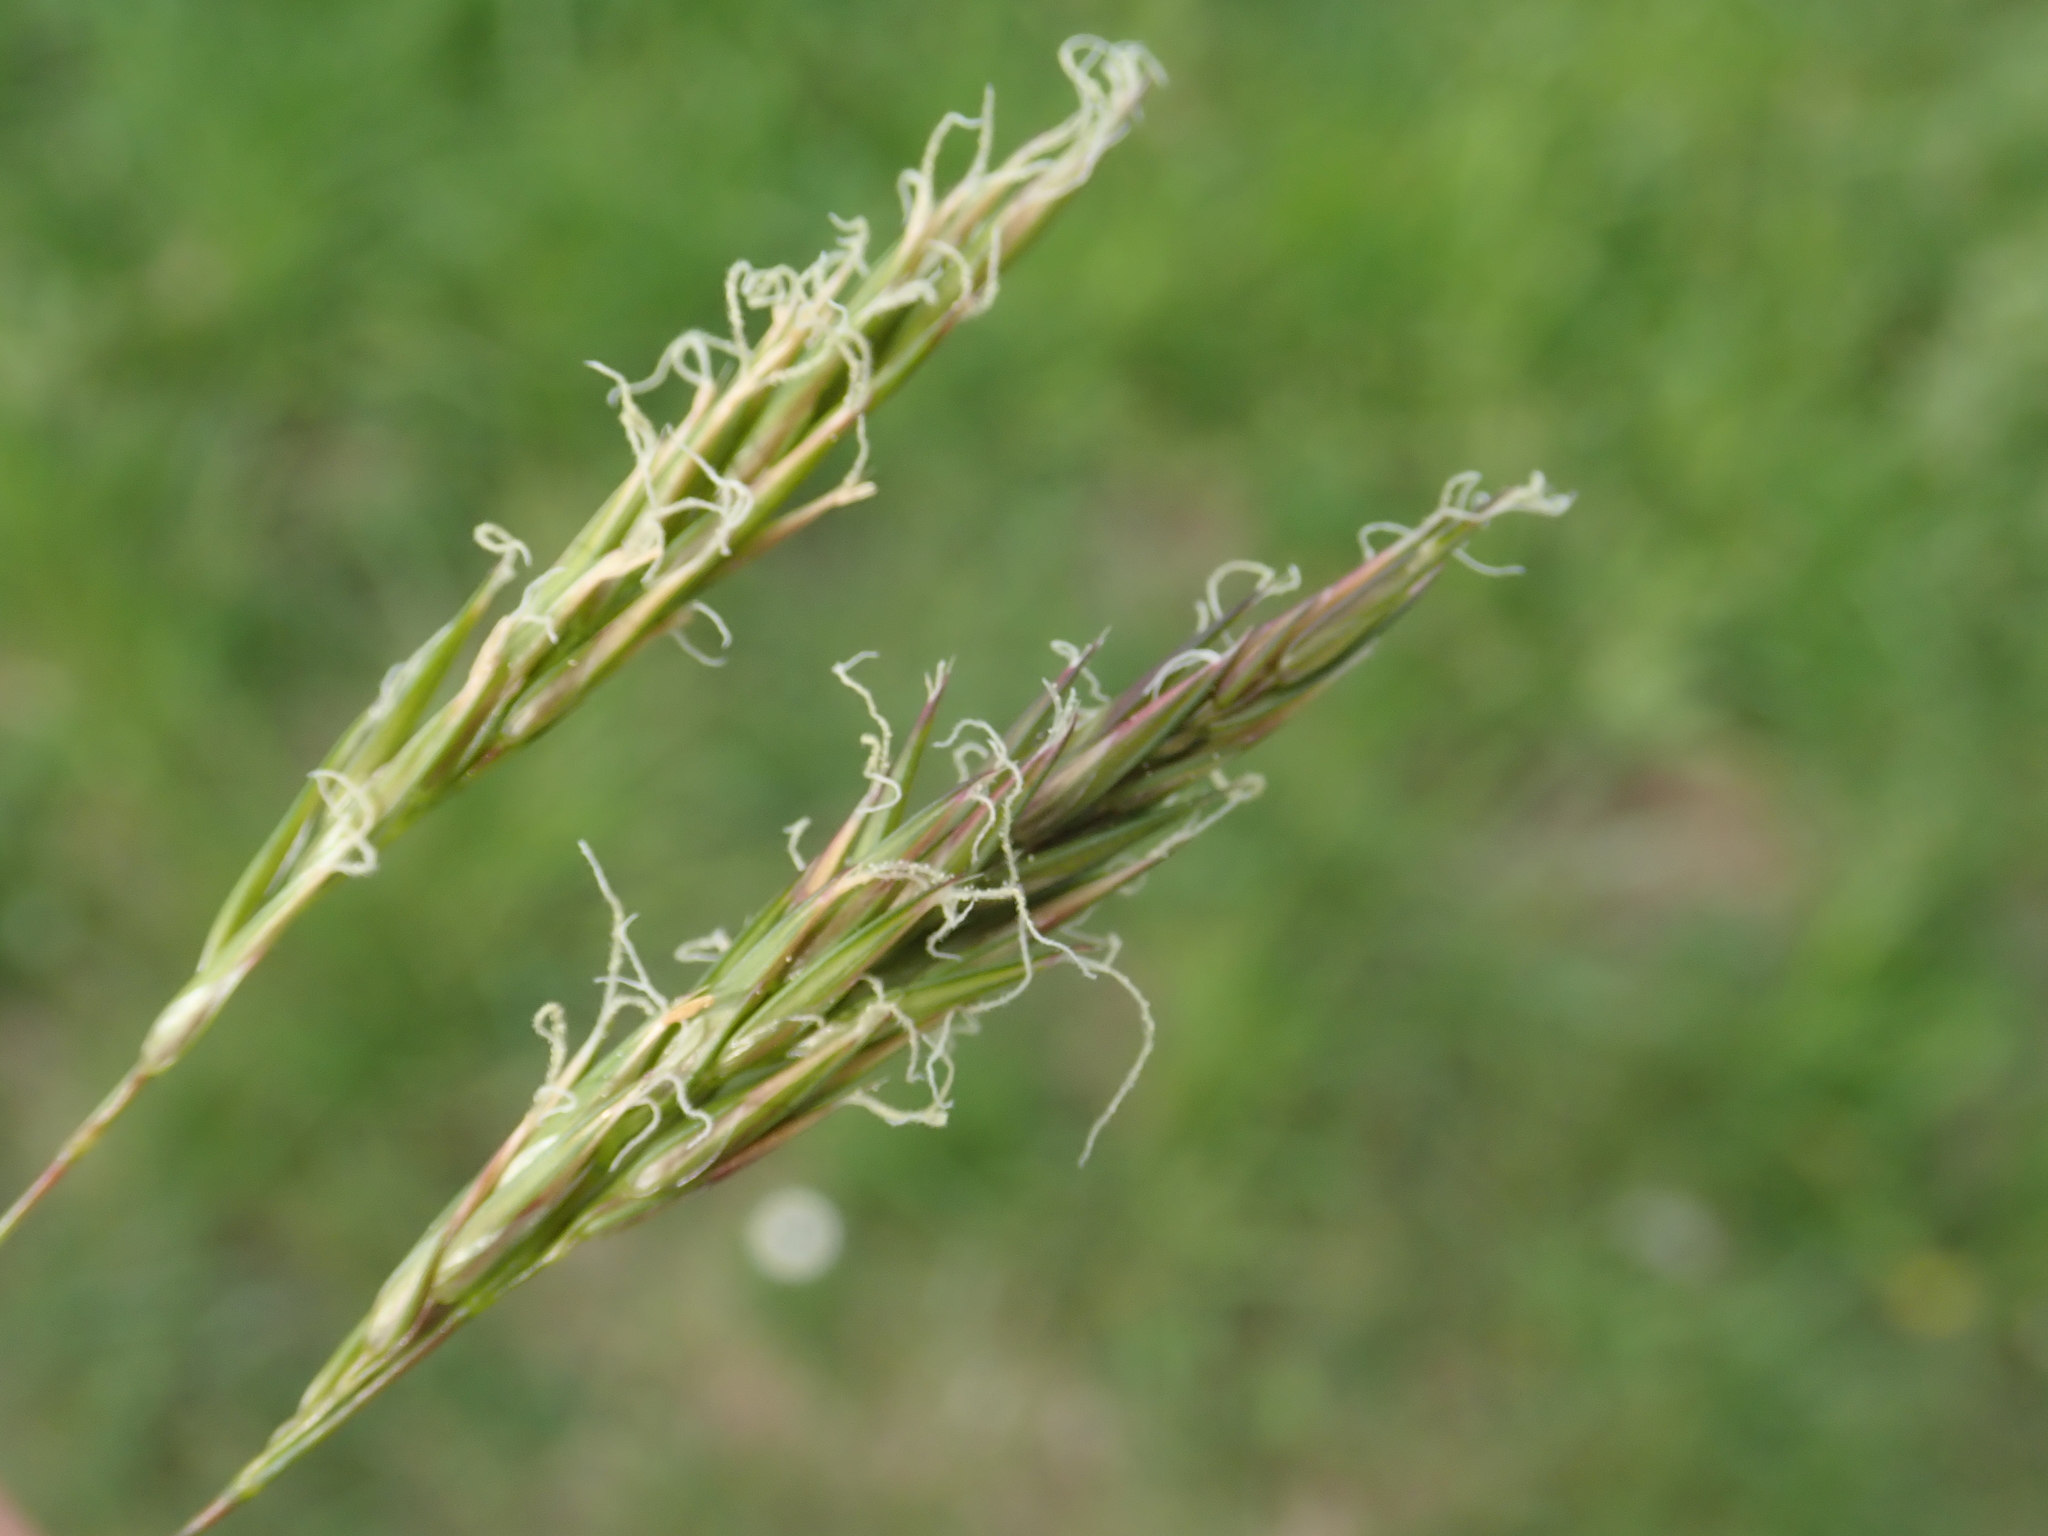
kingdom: Plantae
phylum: Tracheophyta
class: Liliopsida
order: Poales
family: Poaceae
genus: Anthoxanthum
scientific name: Anthoxanthum odoratum
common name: Sweet vernalgrass
